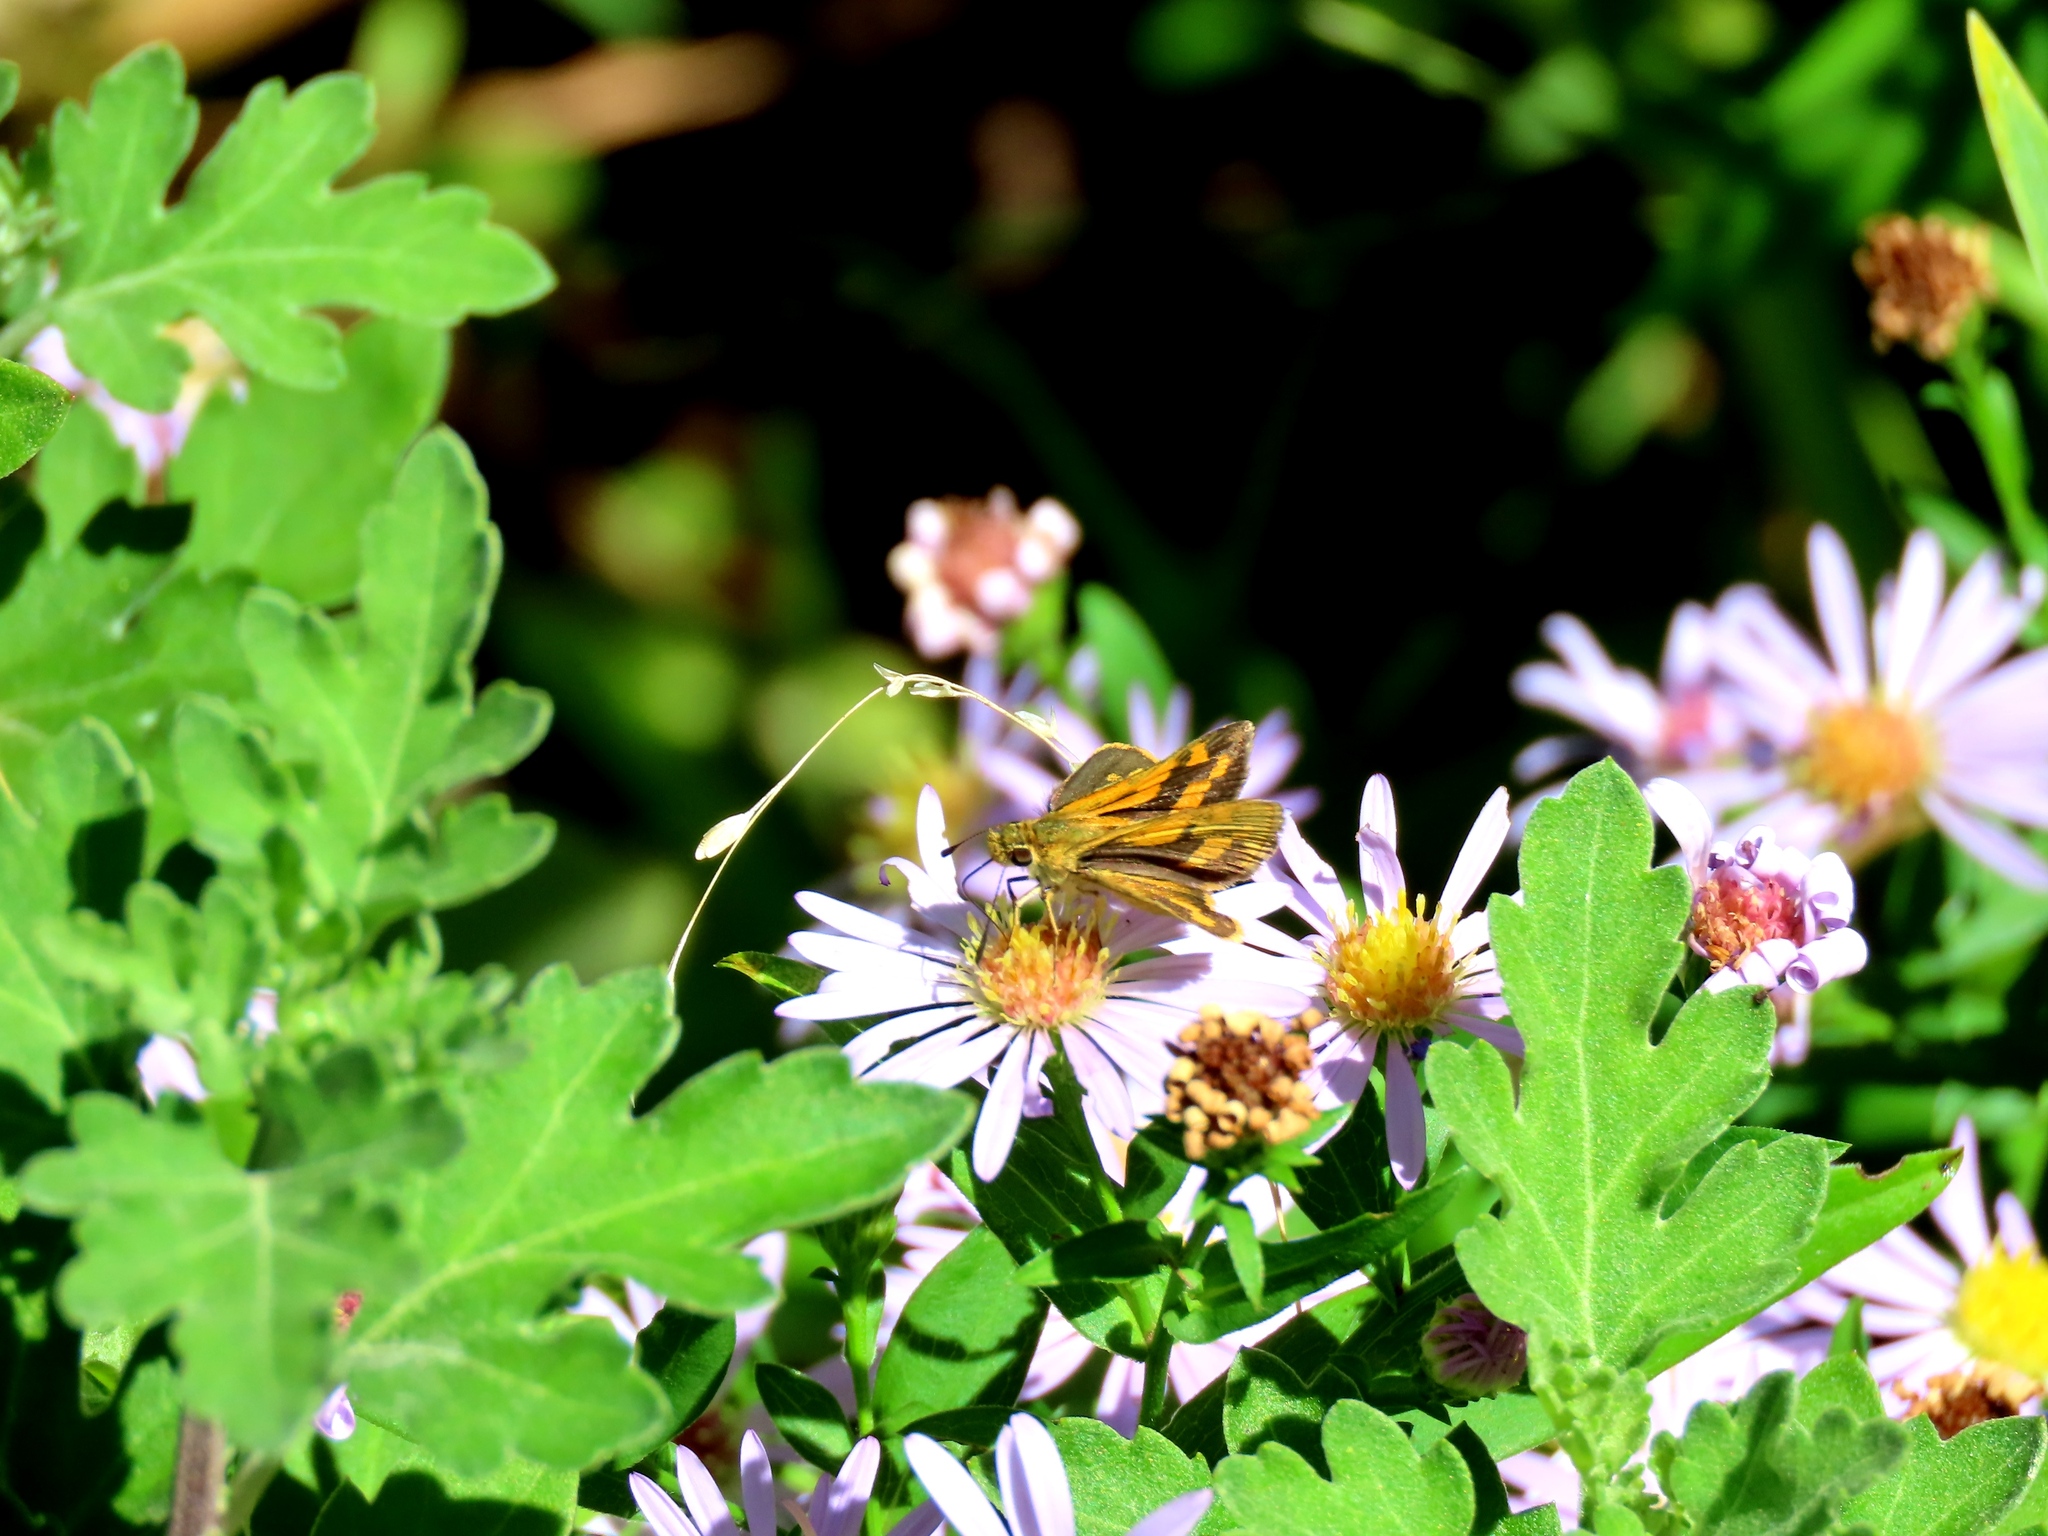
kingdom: Animalia
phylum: Arthropoda
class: Insecta
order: Lepidoptera
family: Hesperiidae
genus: Ocybadistes
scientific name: Ocybadistes walkeri
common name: Yellow-banded dart
